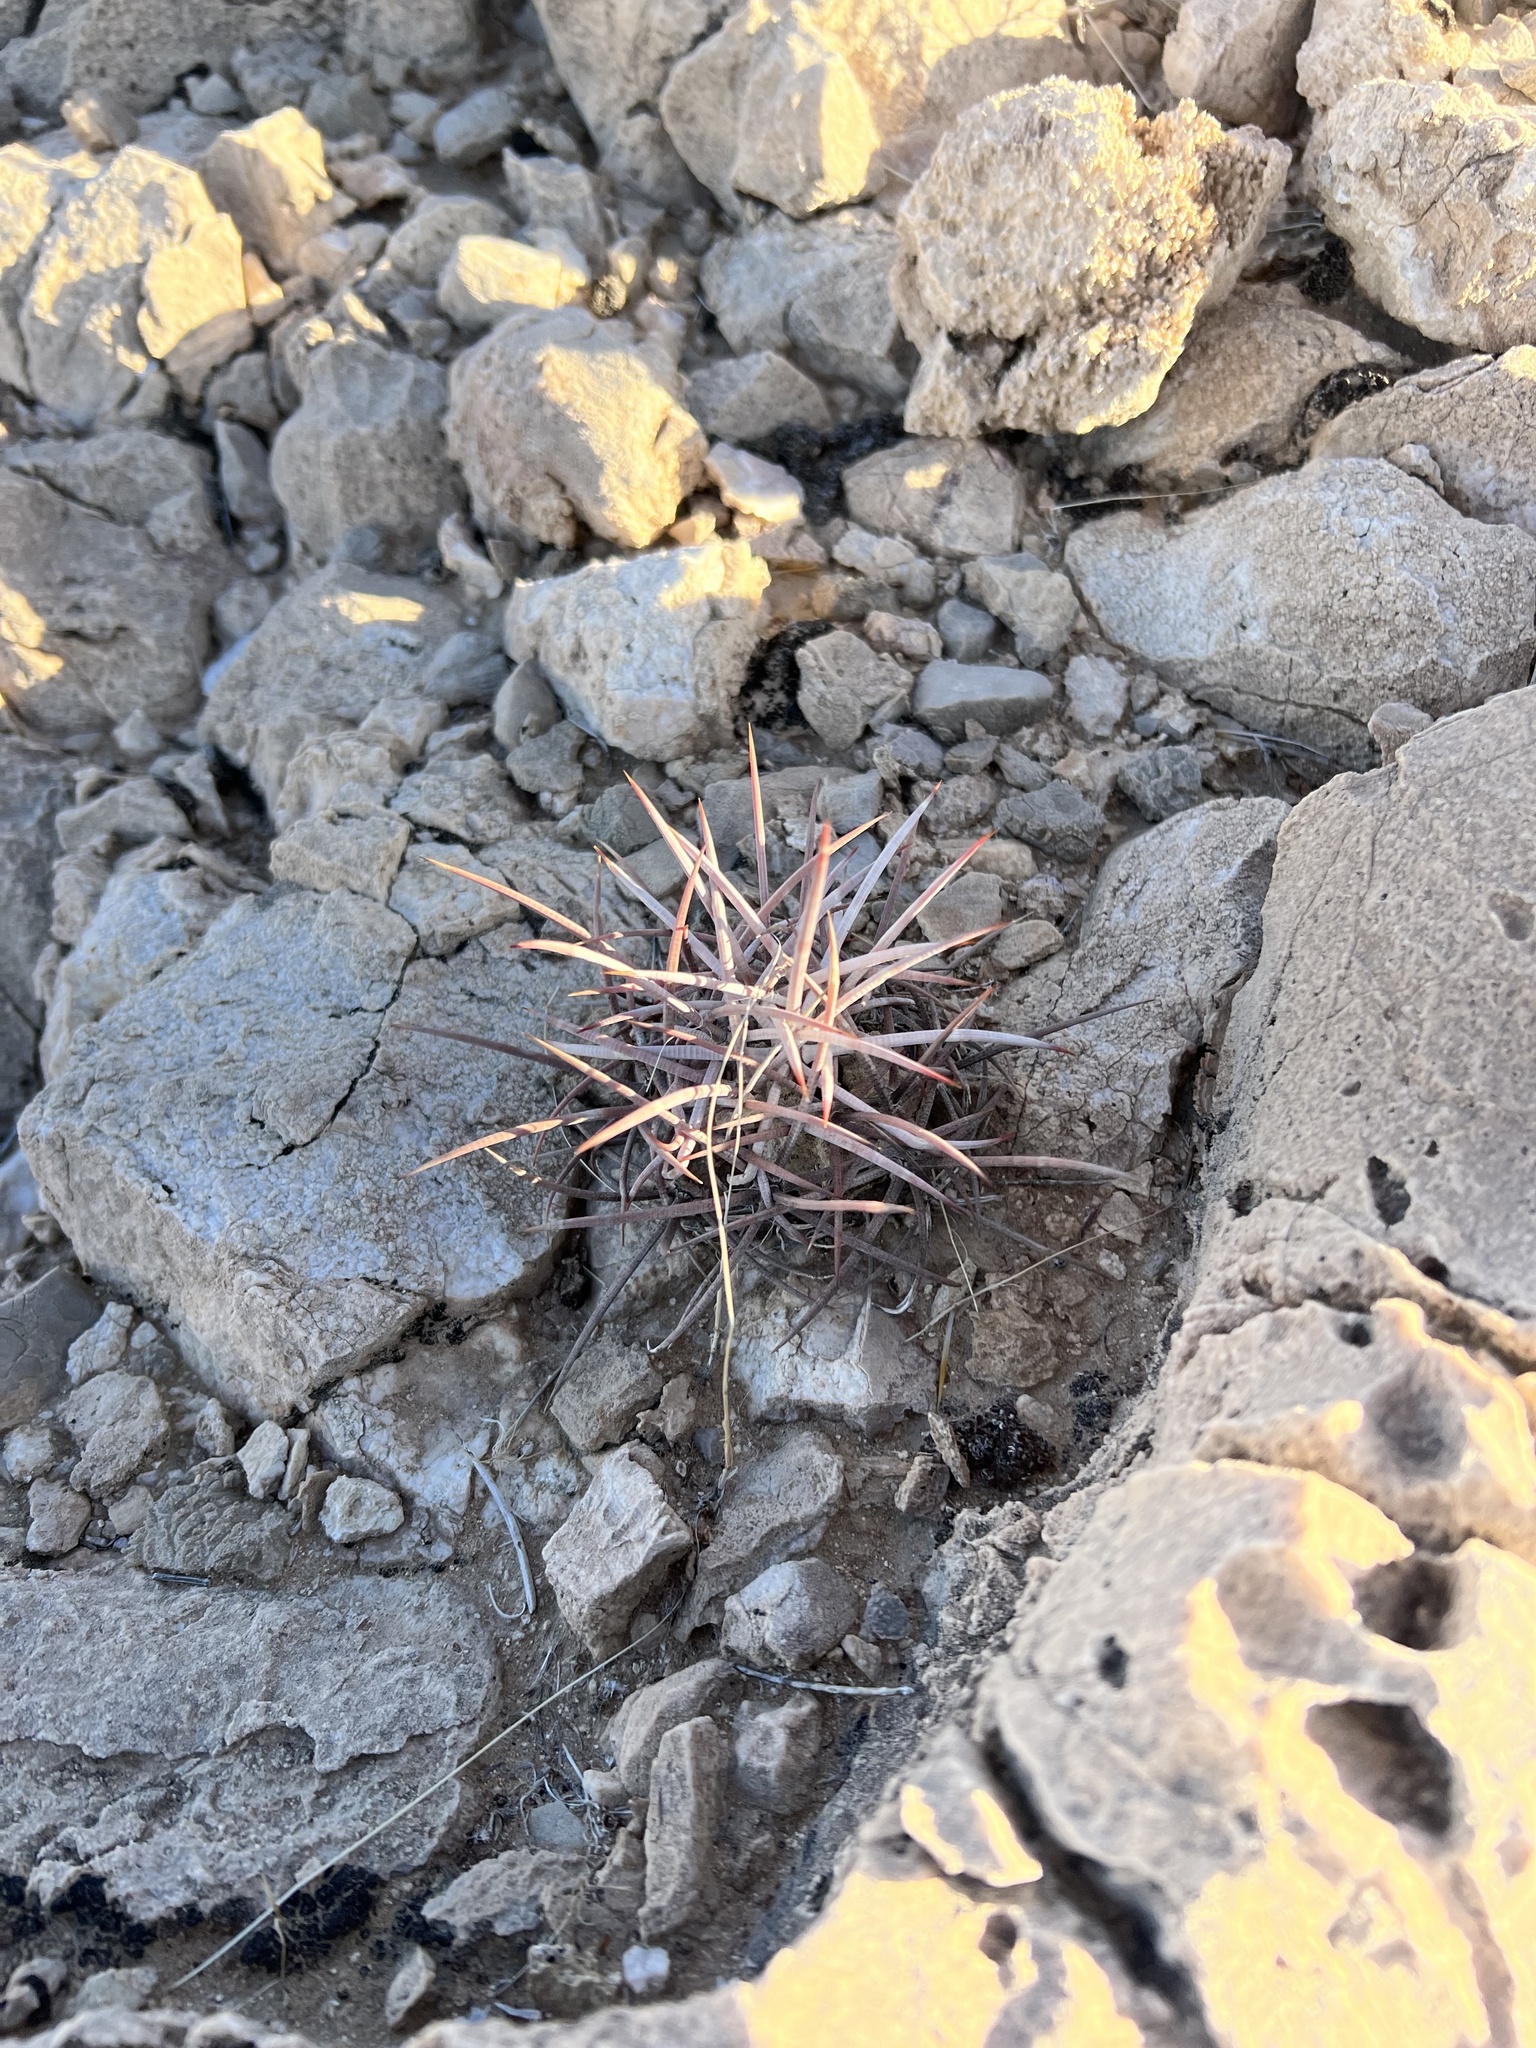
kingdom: Plantae
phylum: Tracheophyta
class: Magnoliopsida
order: Caryophyllales
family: Cactaceae
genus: Echinocactus
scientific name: Echinocactus polycephalus
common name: Cottontop cactus
